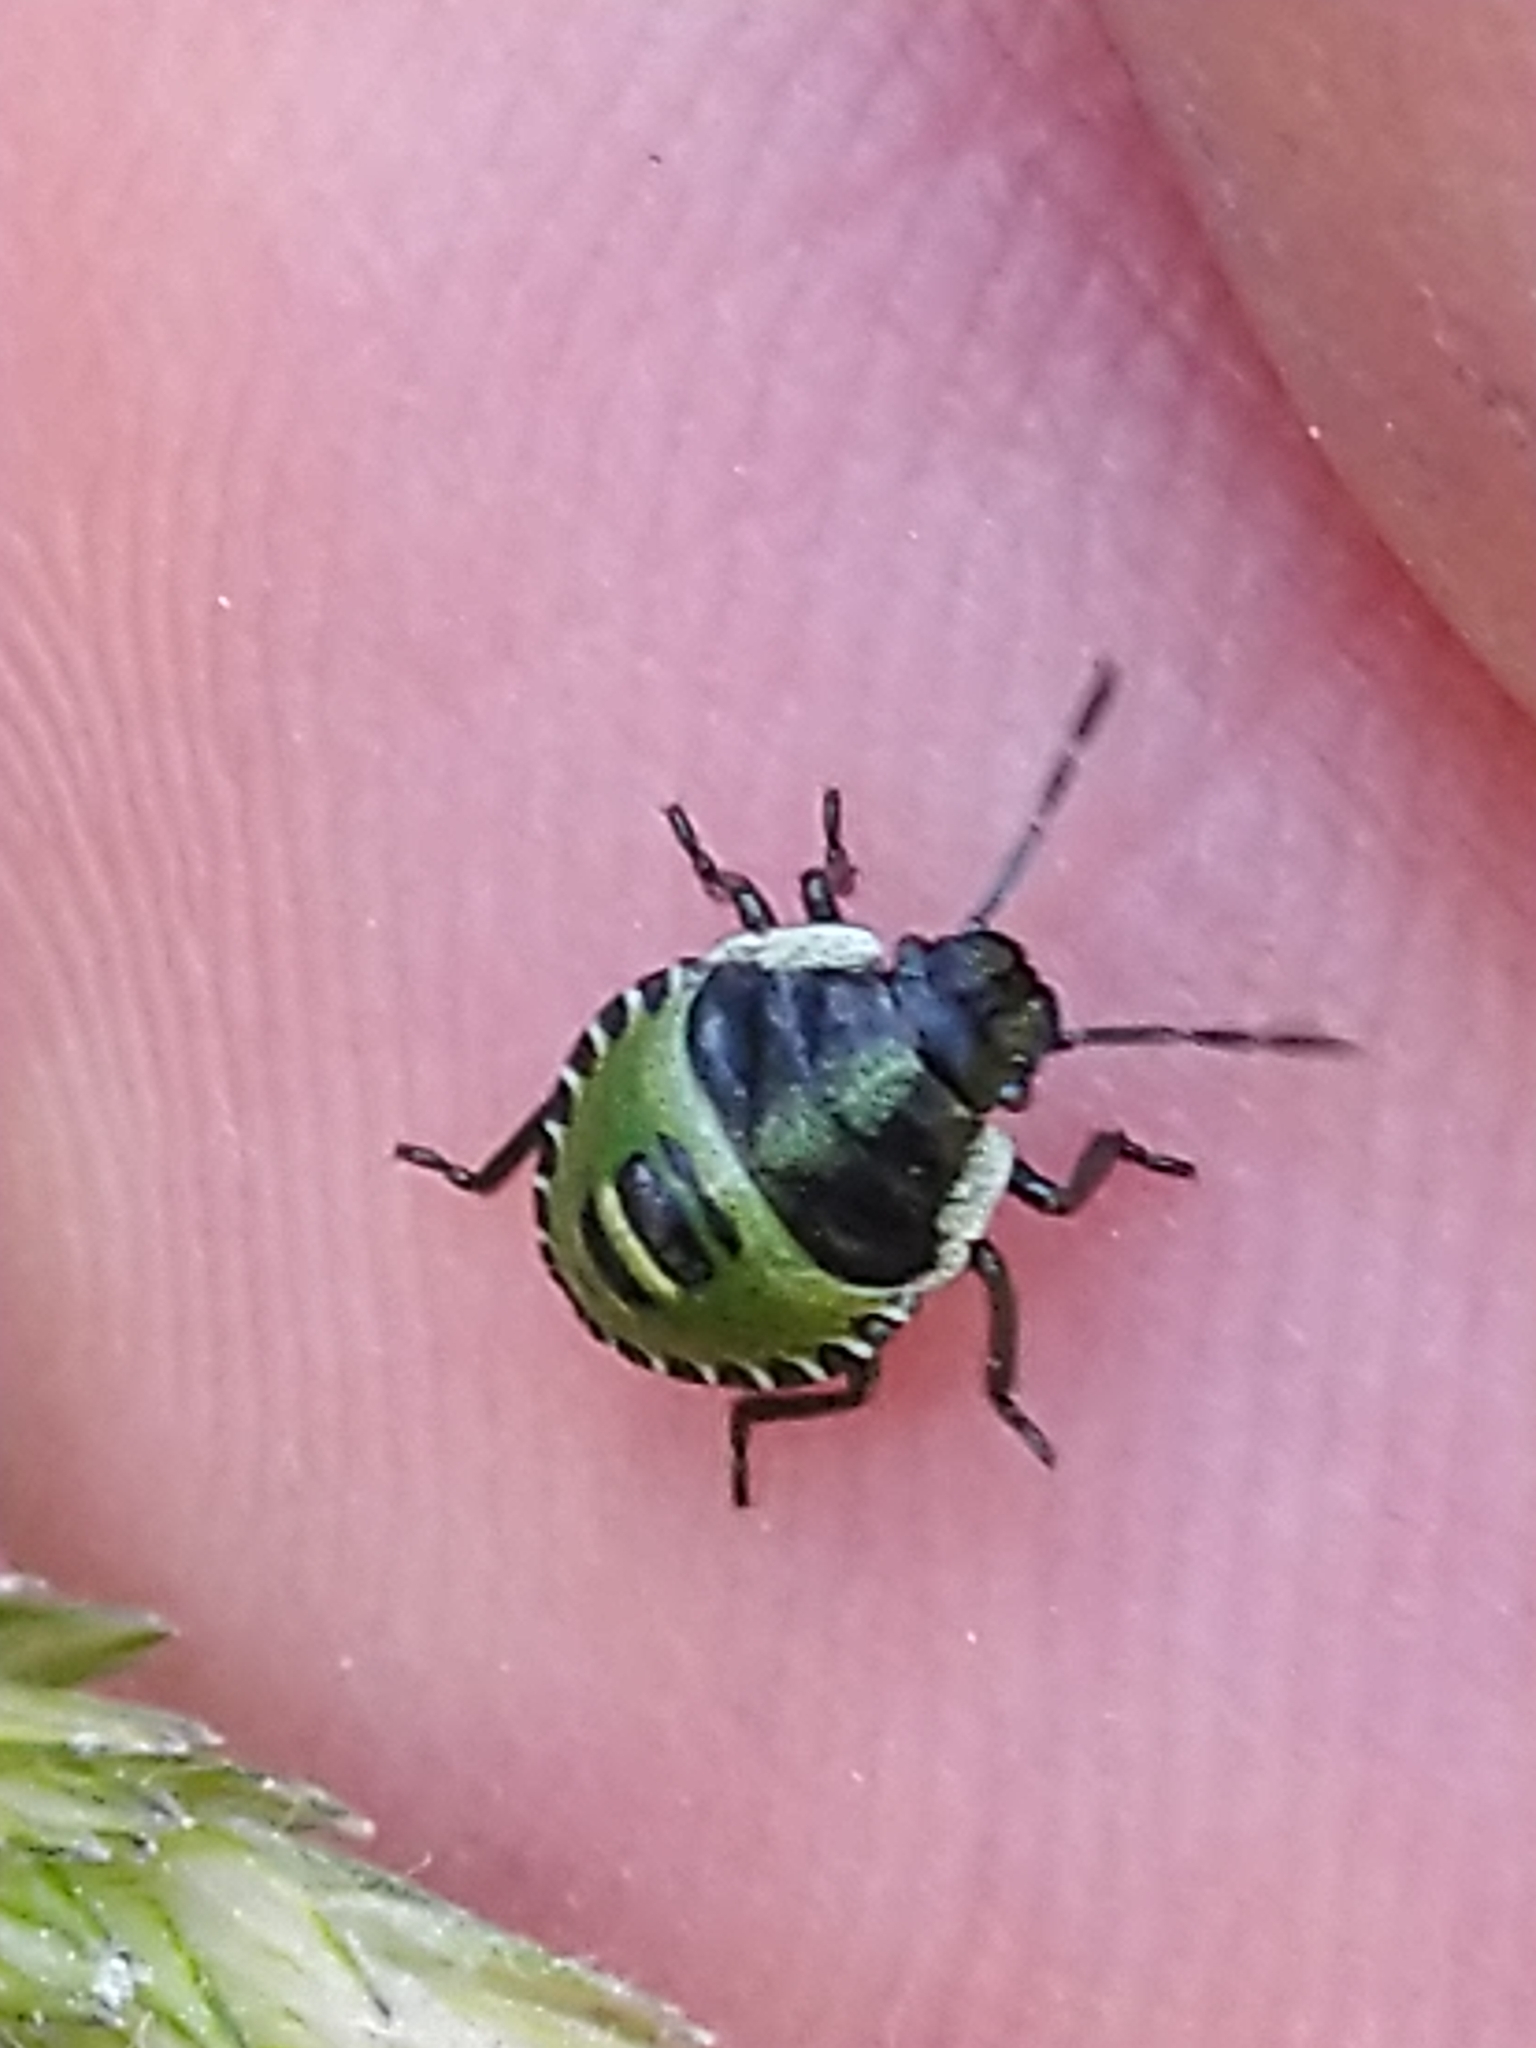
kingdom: Animalia
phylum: Arthropoda
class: Insecta
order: Hemiptera
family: Pentatomidae
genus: Palomena
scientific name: Palomena prasina
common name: Green shieldbug
